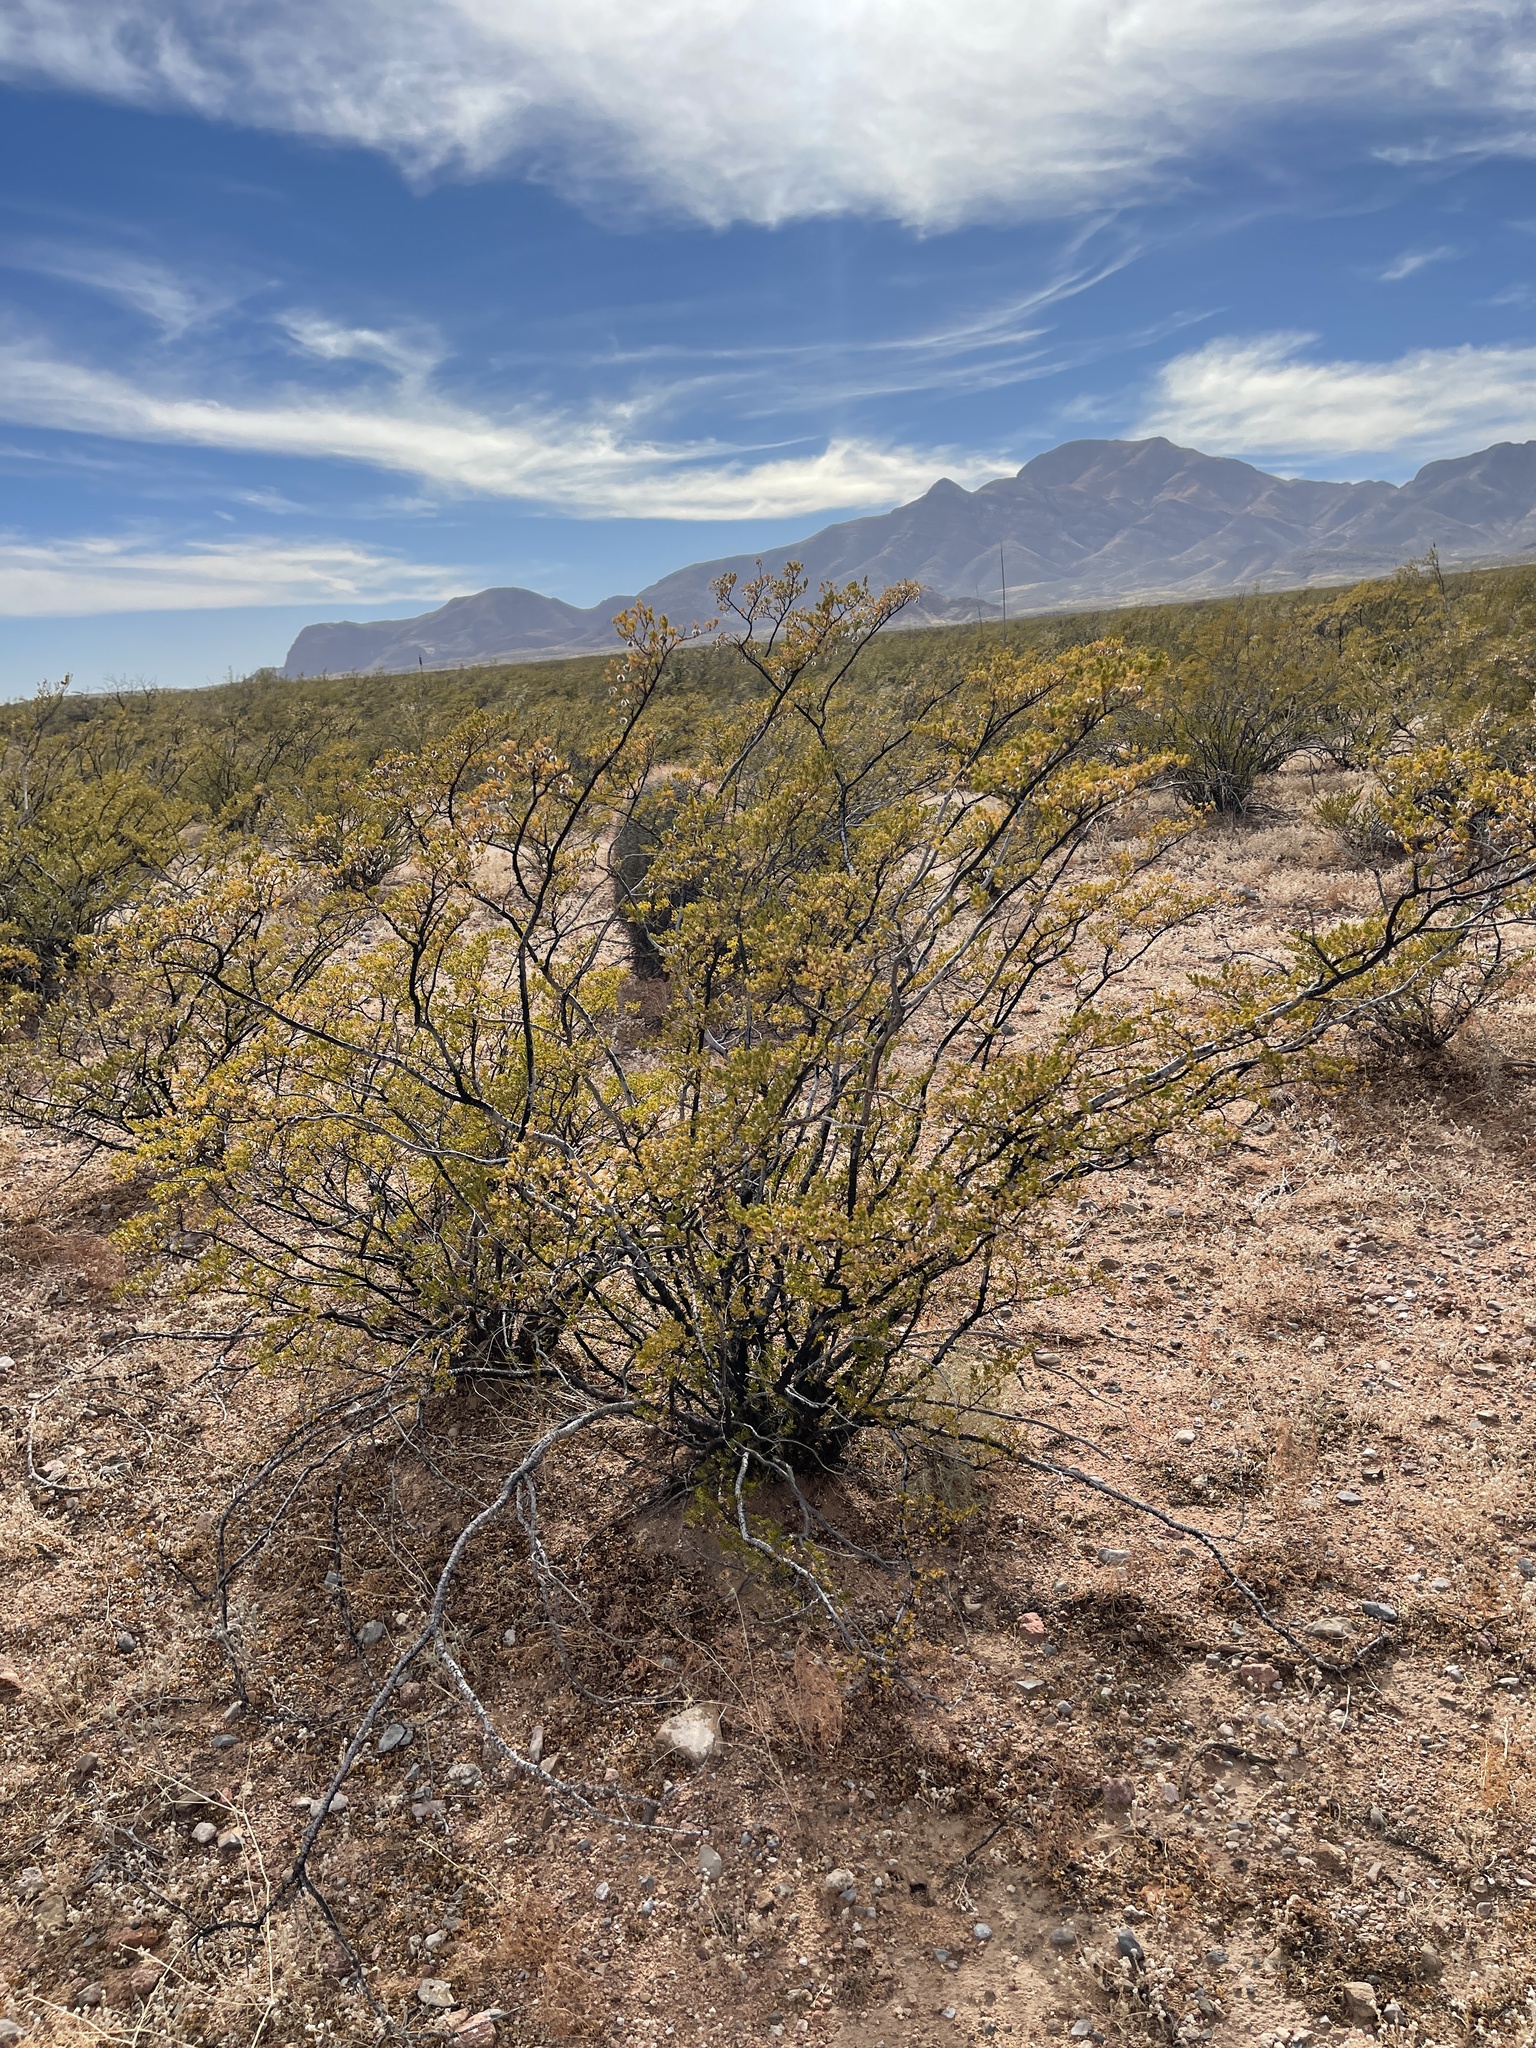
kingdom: Plantae
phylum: Tracheophyta
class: Magnoliopsida
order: Zygophyllales
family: Zygophyllaceae
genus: Larrea
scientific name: Larrea tridentata
